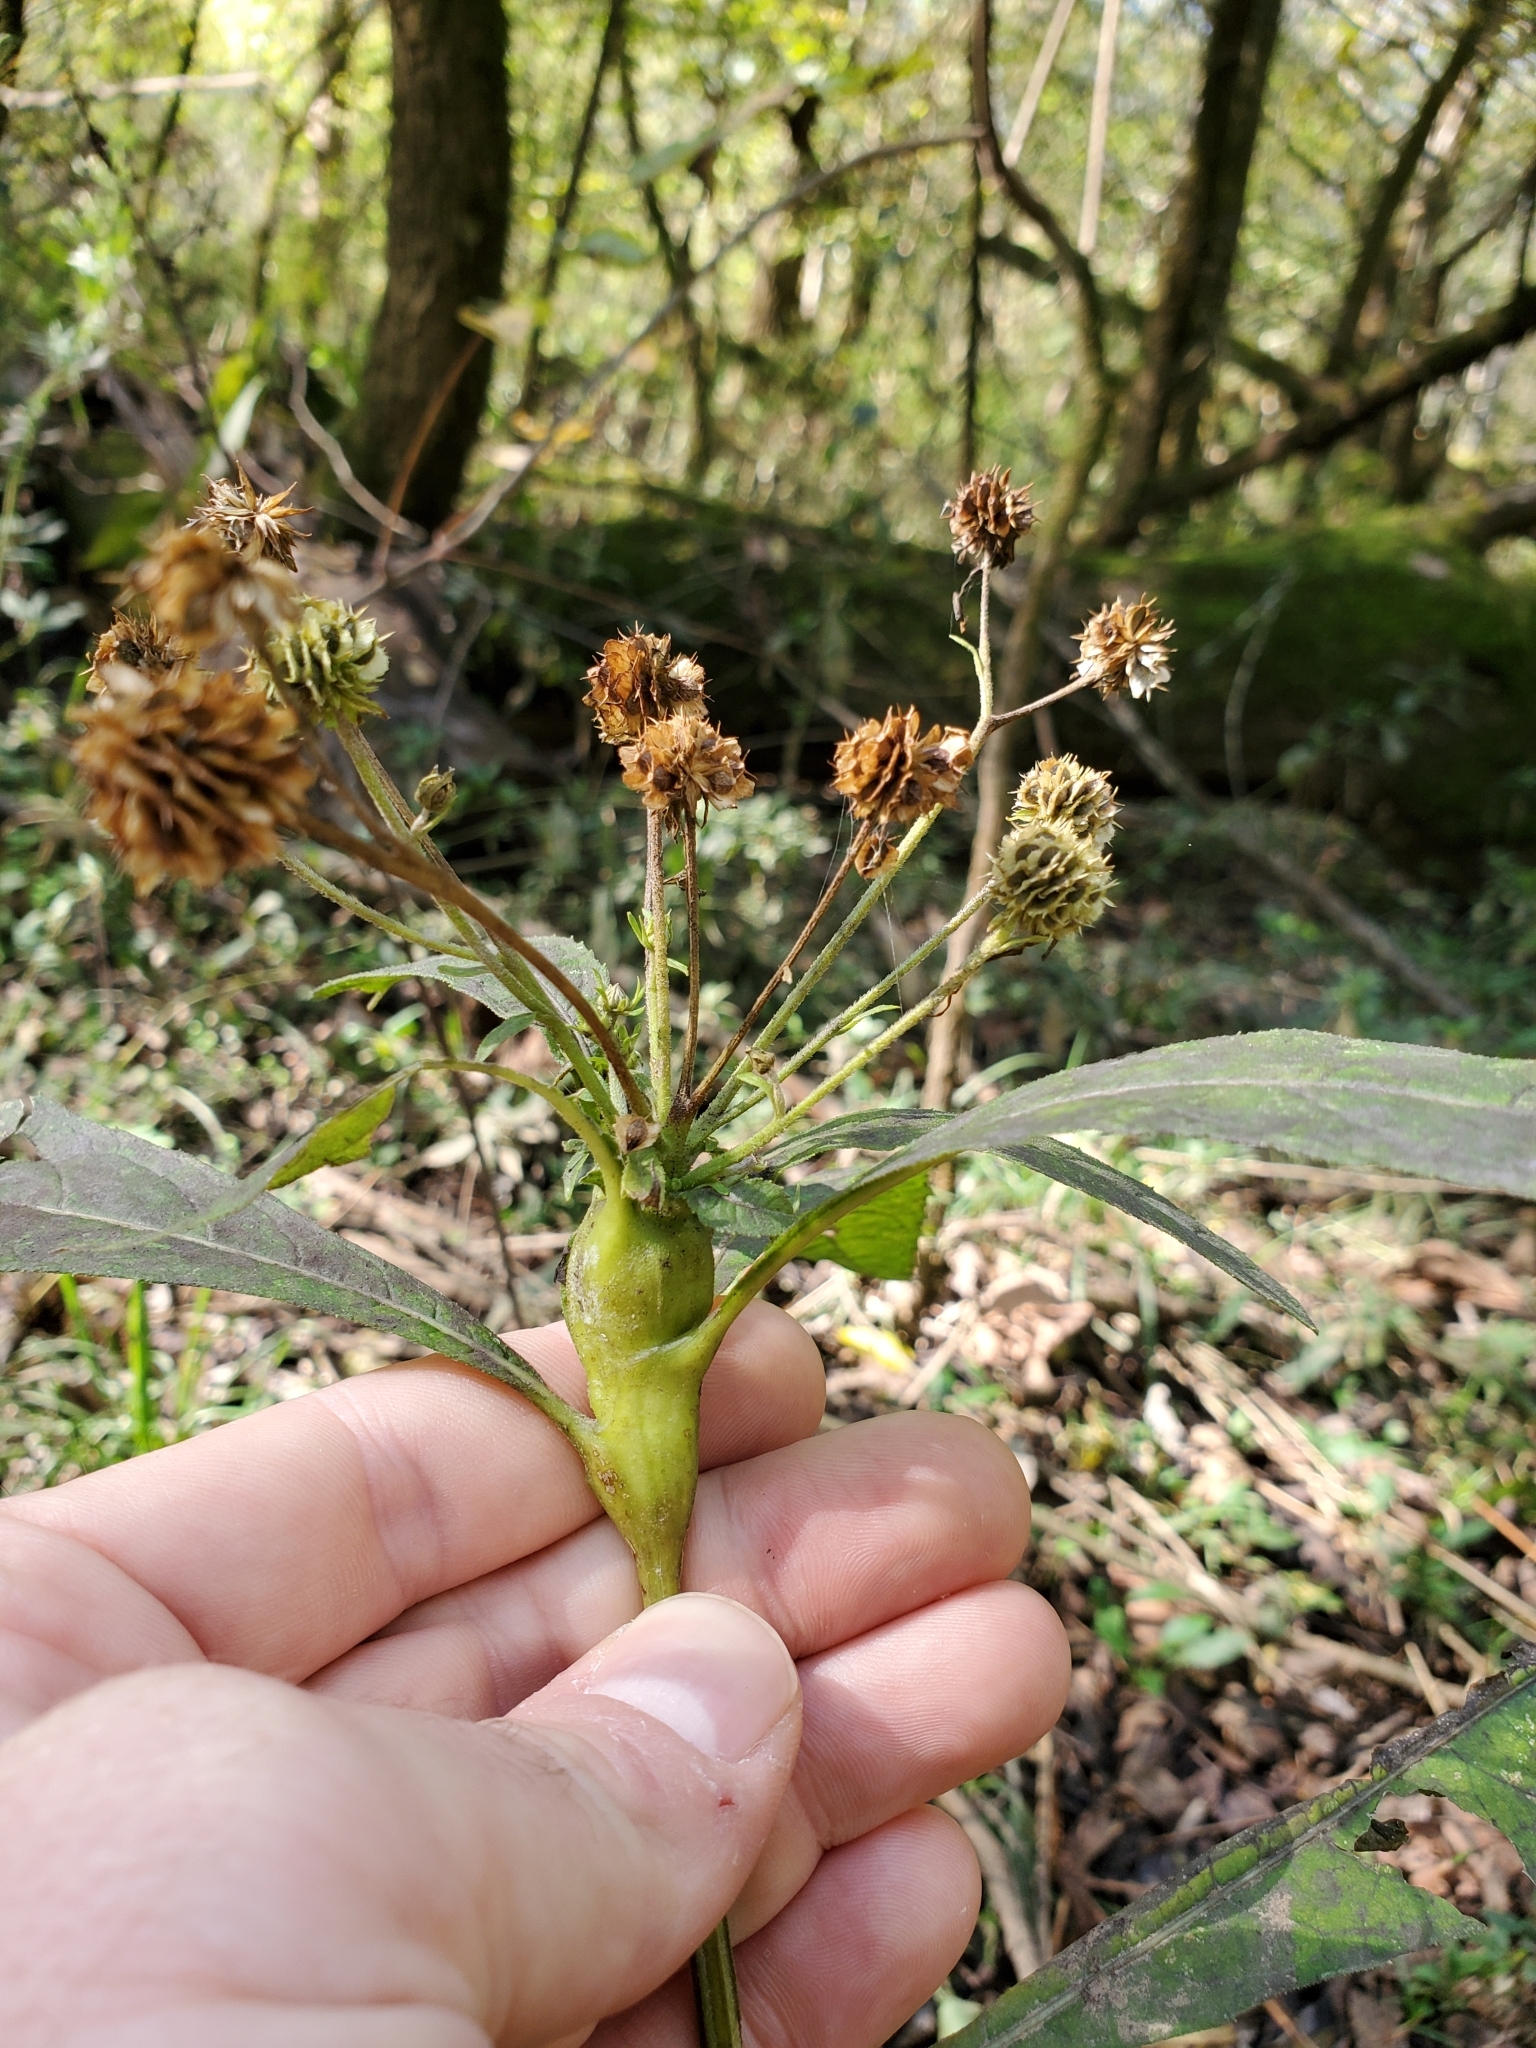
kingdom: Animalia
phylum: Arthropoda
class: Insecta
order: Diptera
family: Cecidomyiidae
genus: Neolasioptera
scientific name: Neolasioptera verbesinae
